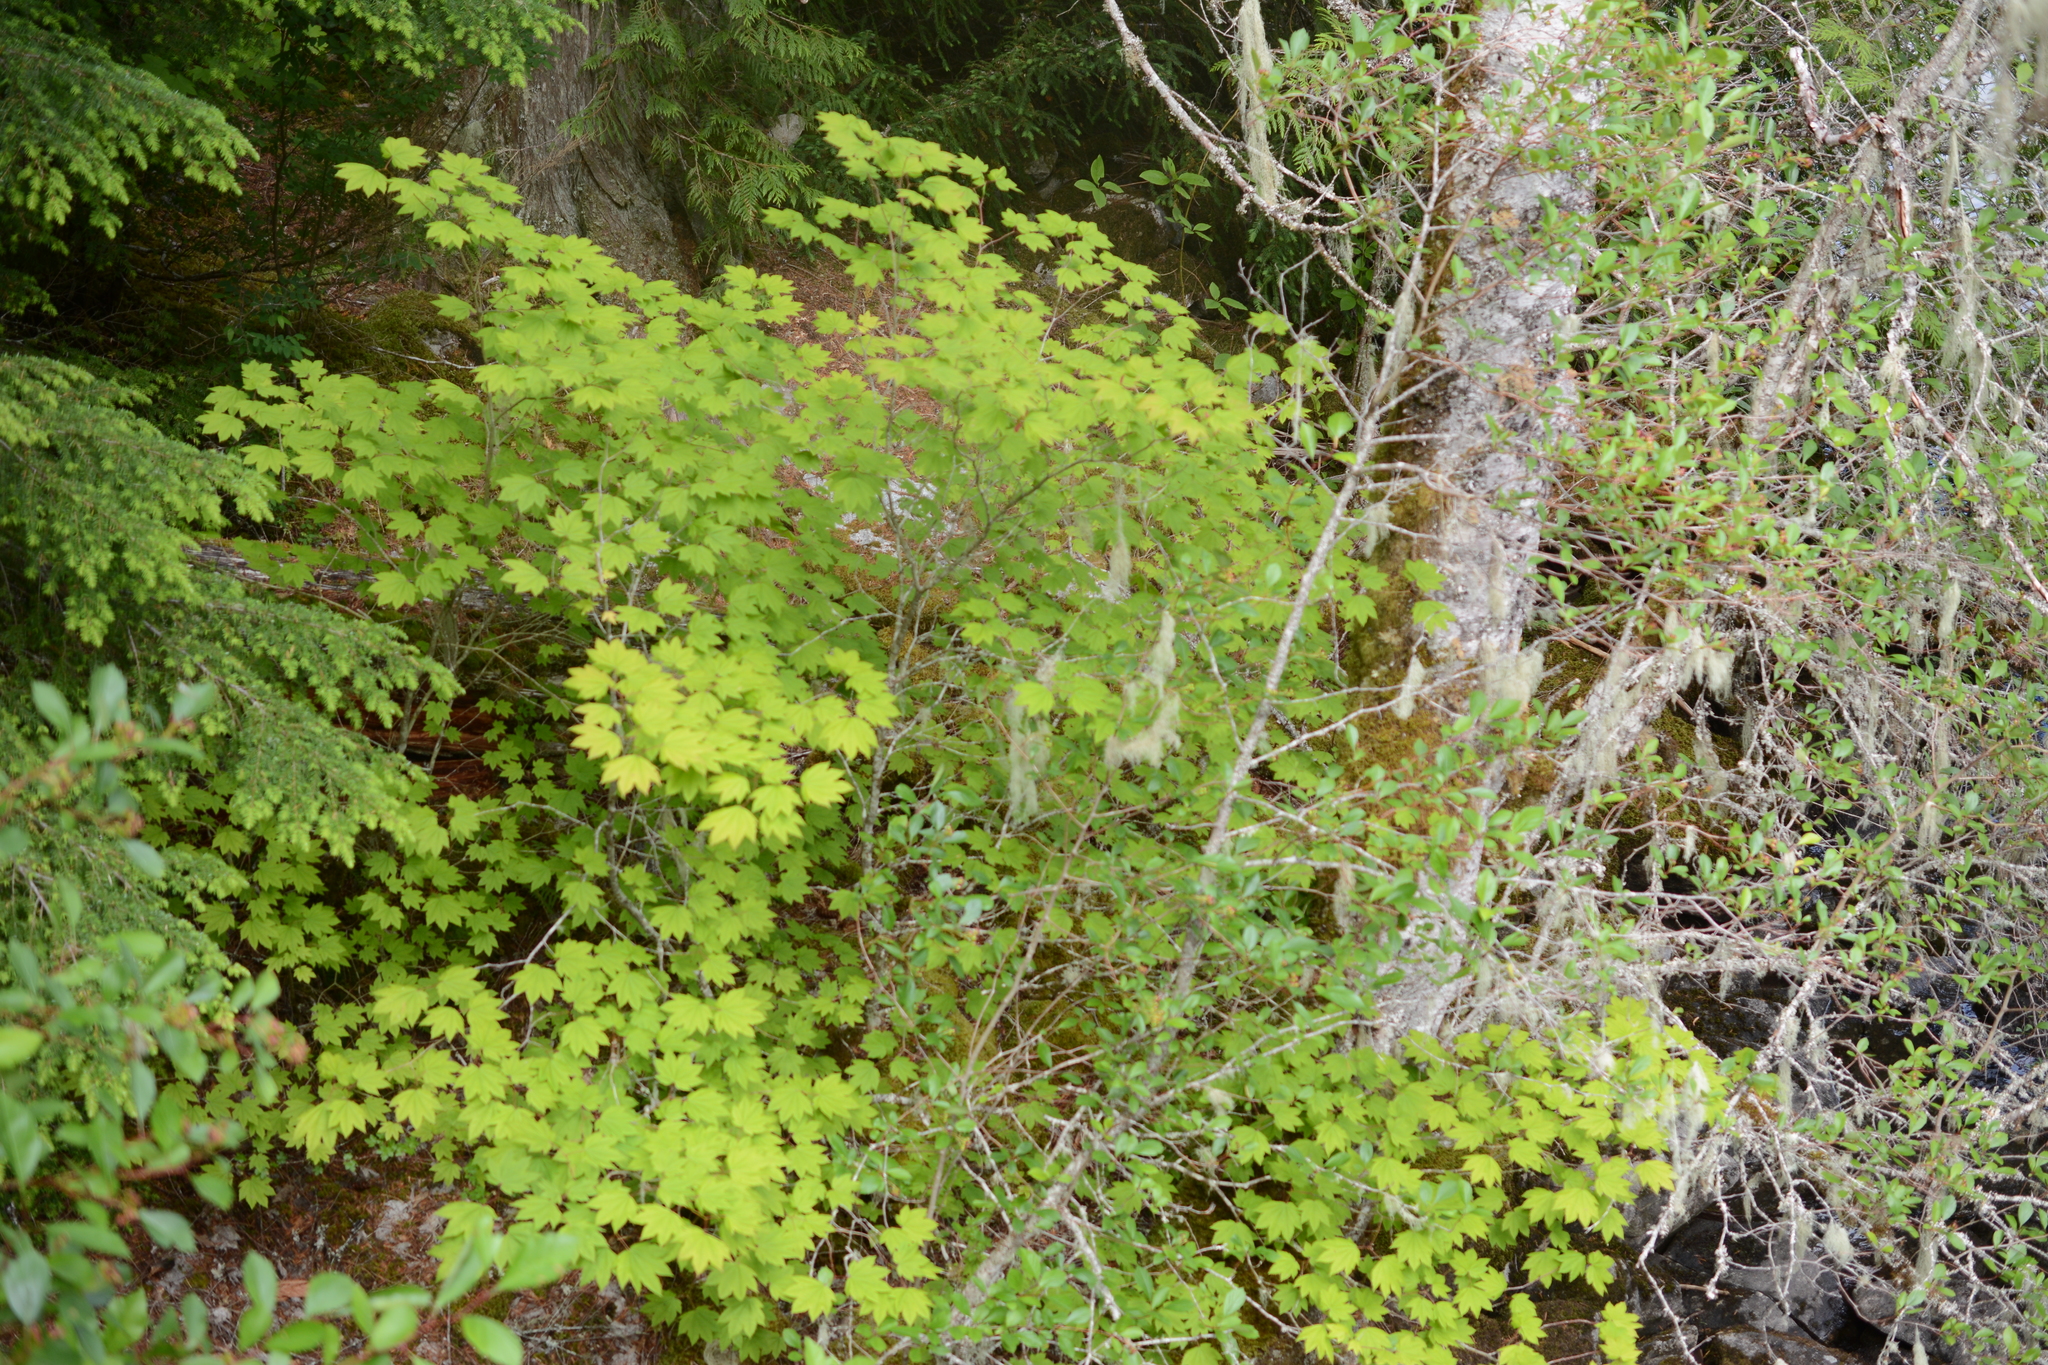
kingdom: Plantae
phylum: Tracheophyta
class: Magnoliopsida
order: Sapindales
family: Sapindaceae
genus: Acer
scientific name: Acer circinatum
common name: Vine maple
